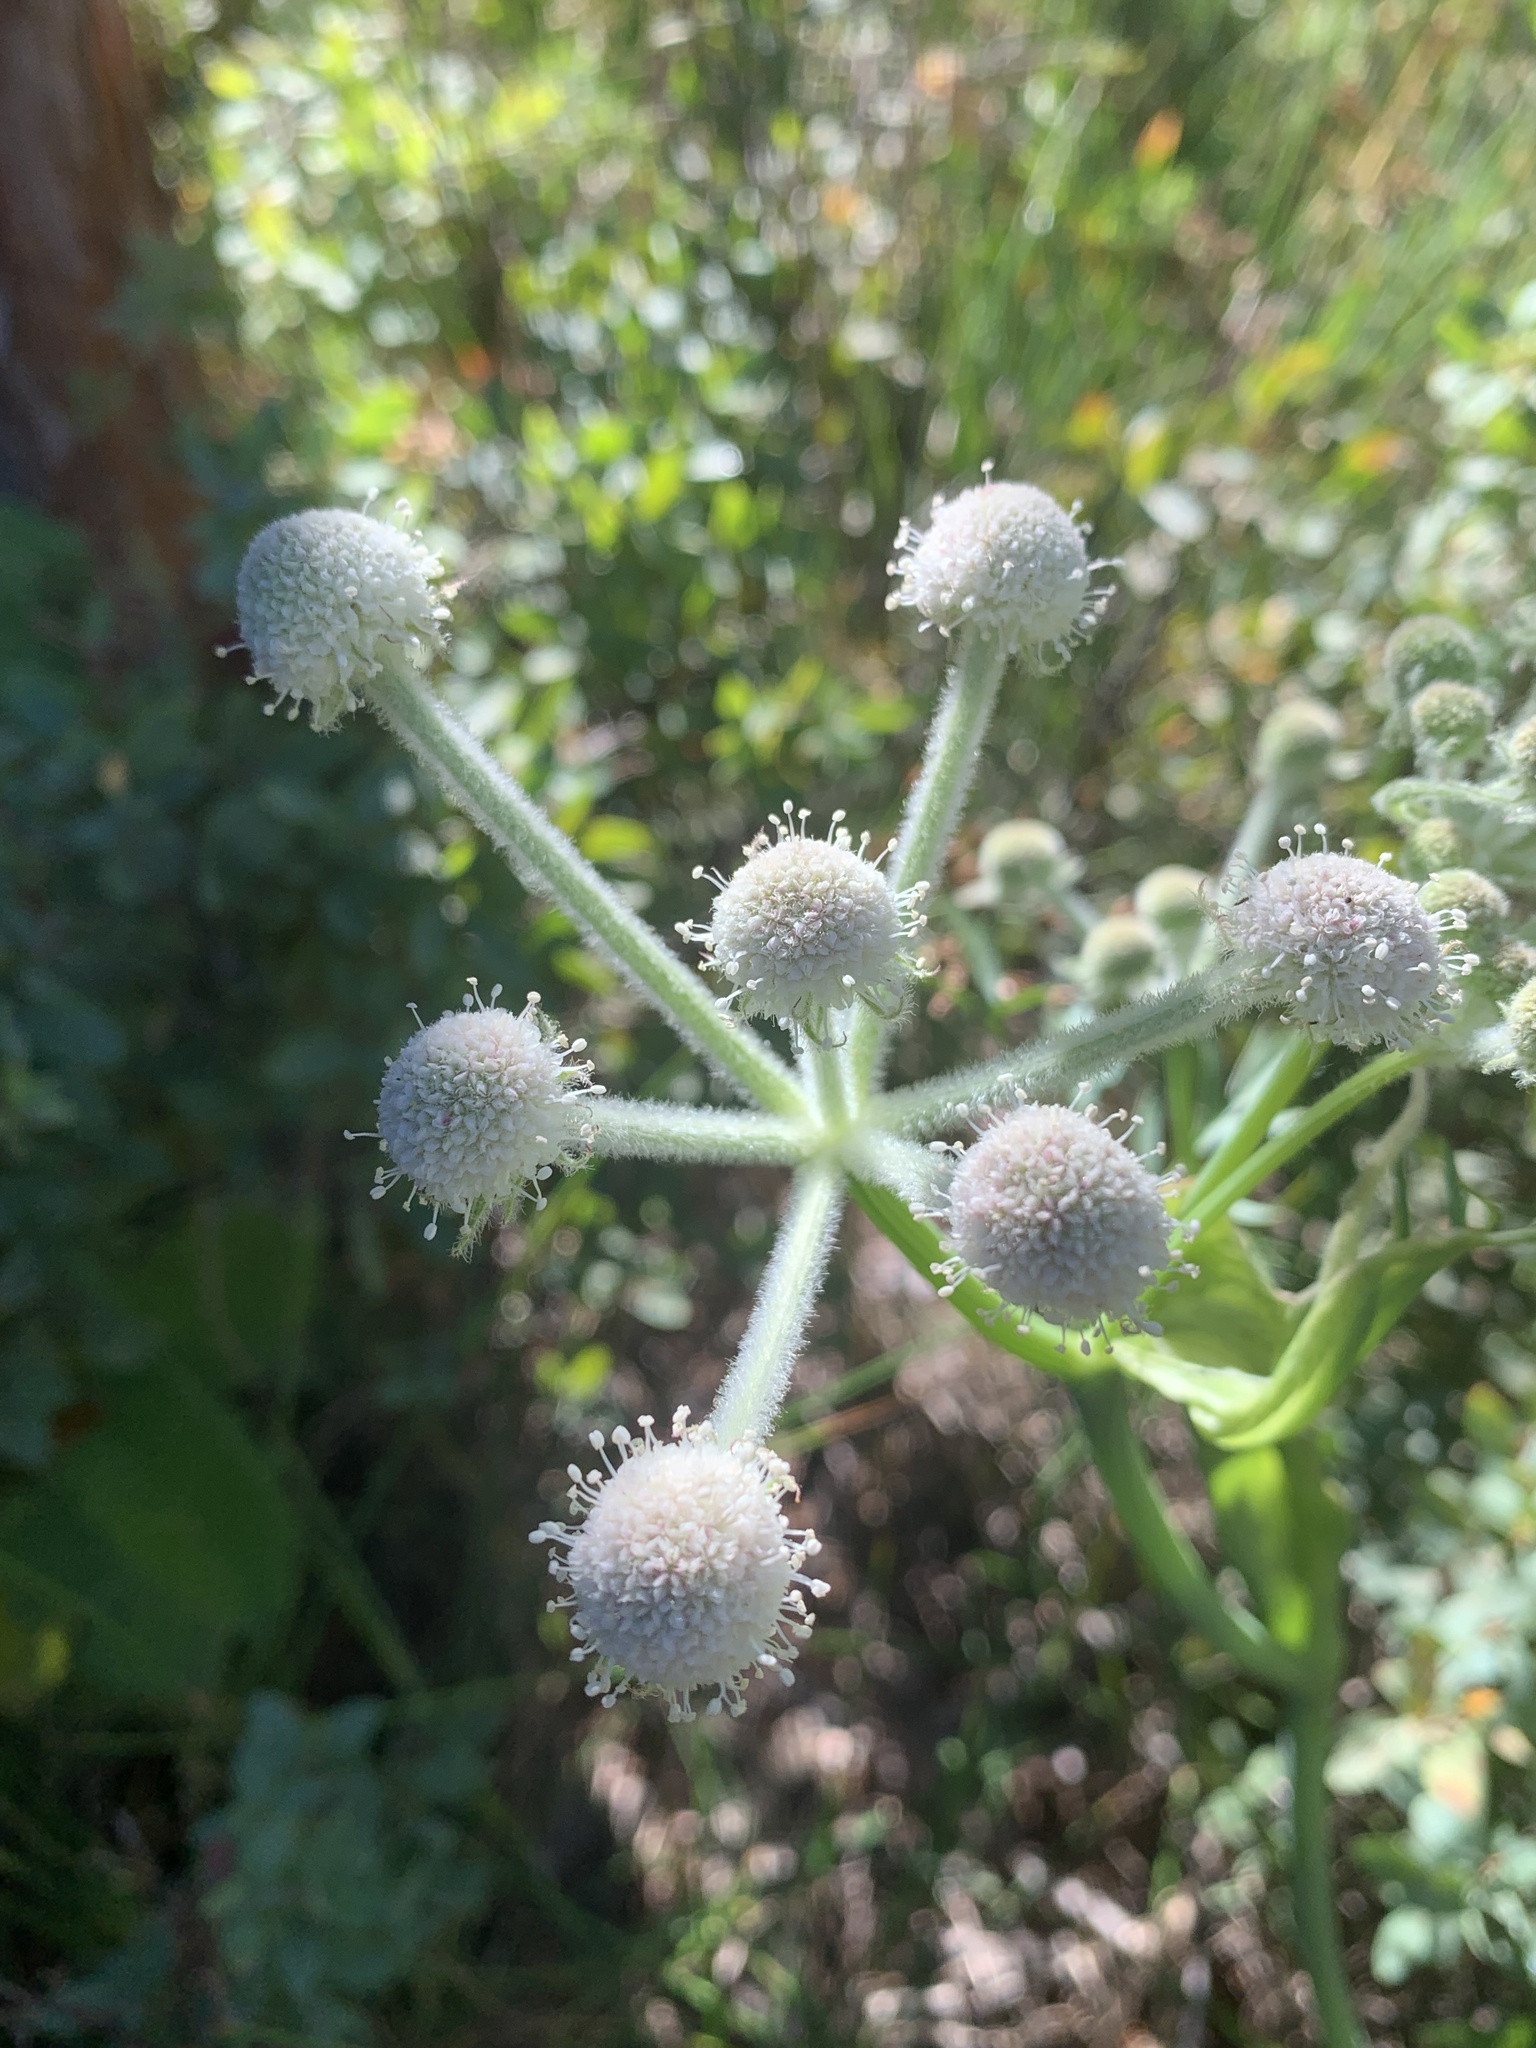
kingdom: Plantae
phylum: Tracheophyta
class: Magnoliopsida
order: Apiales
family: Apiaceae
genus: Angelica
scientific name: Angelica capitellata
